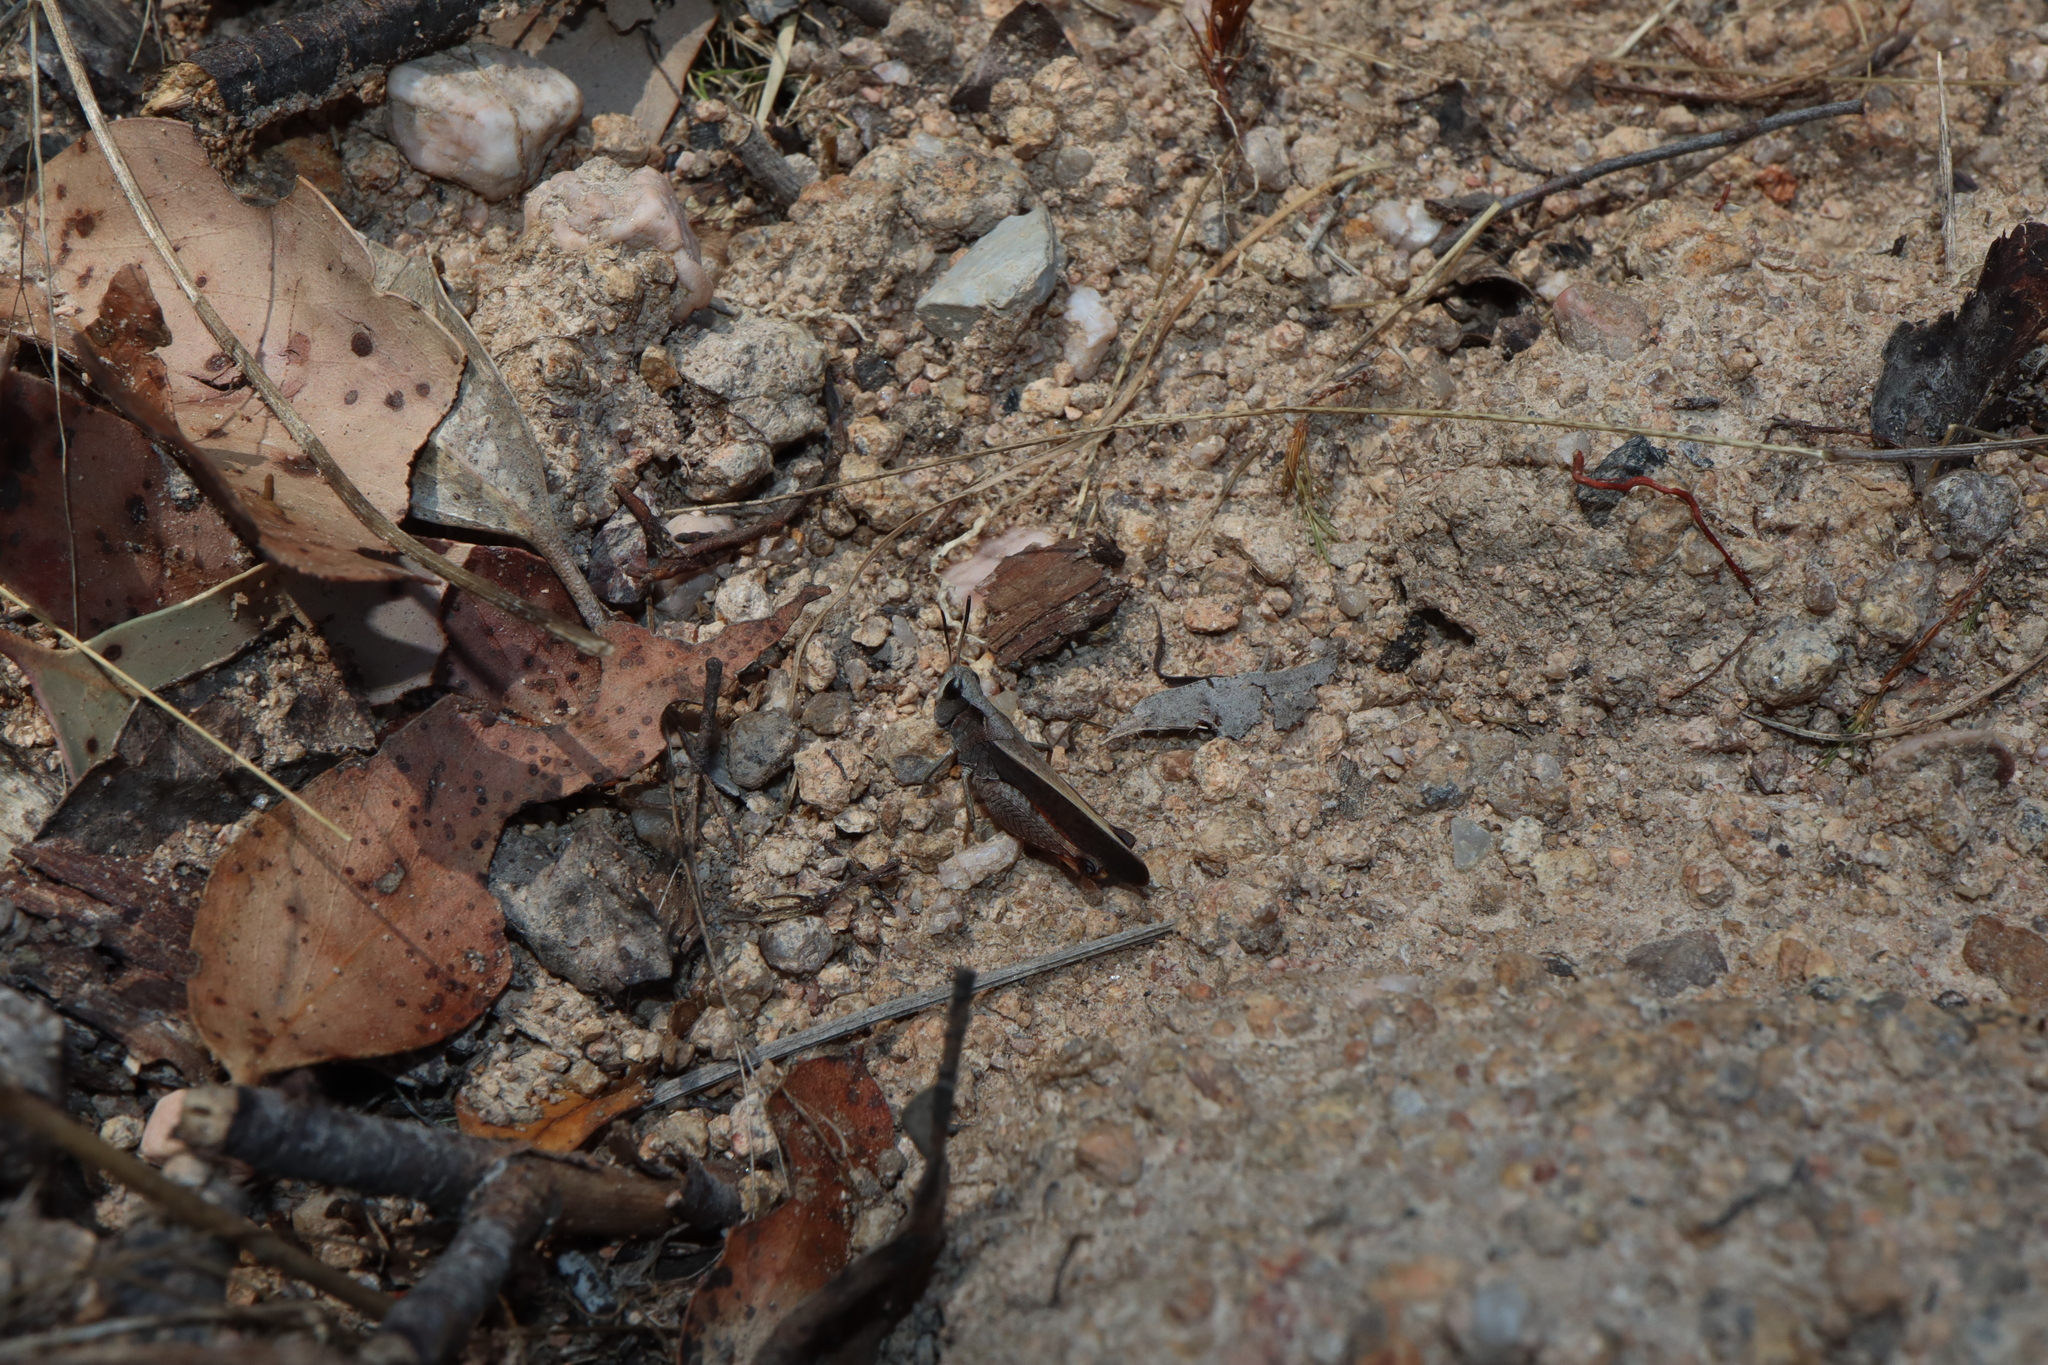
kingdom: Animalia
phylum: Arthropoda
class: Insecta
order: Orthoptera
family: Acrididae
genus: Cryptobothrus
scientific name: Cryptobothrus chrysophorus
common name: Golden bandwing
